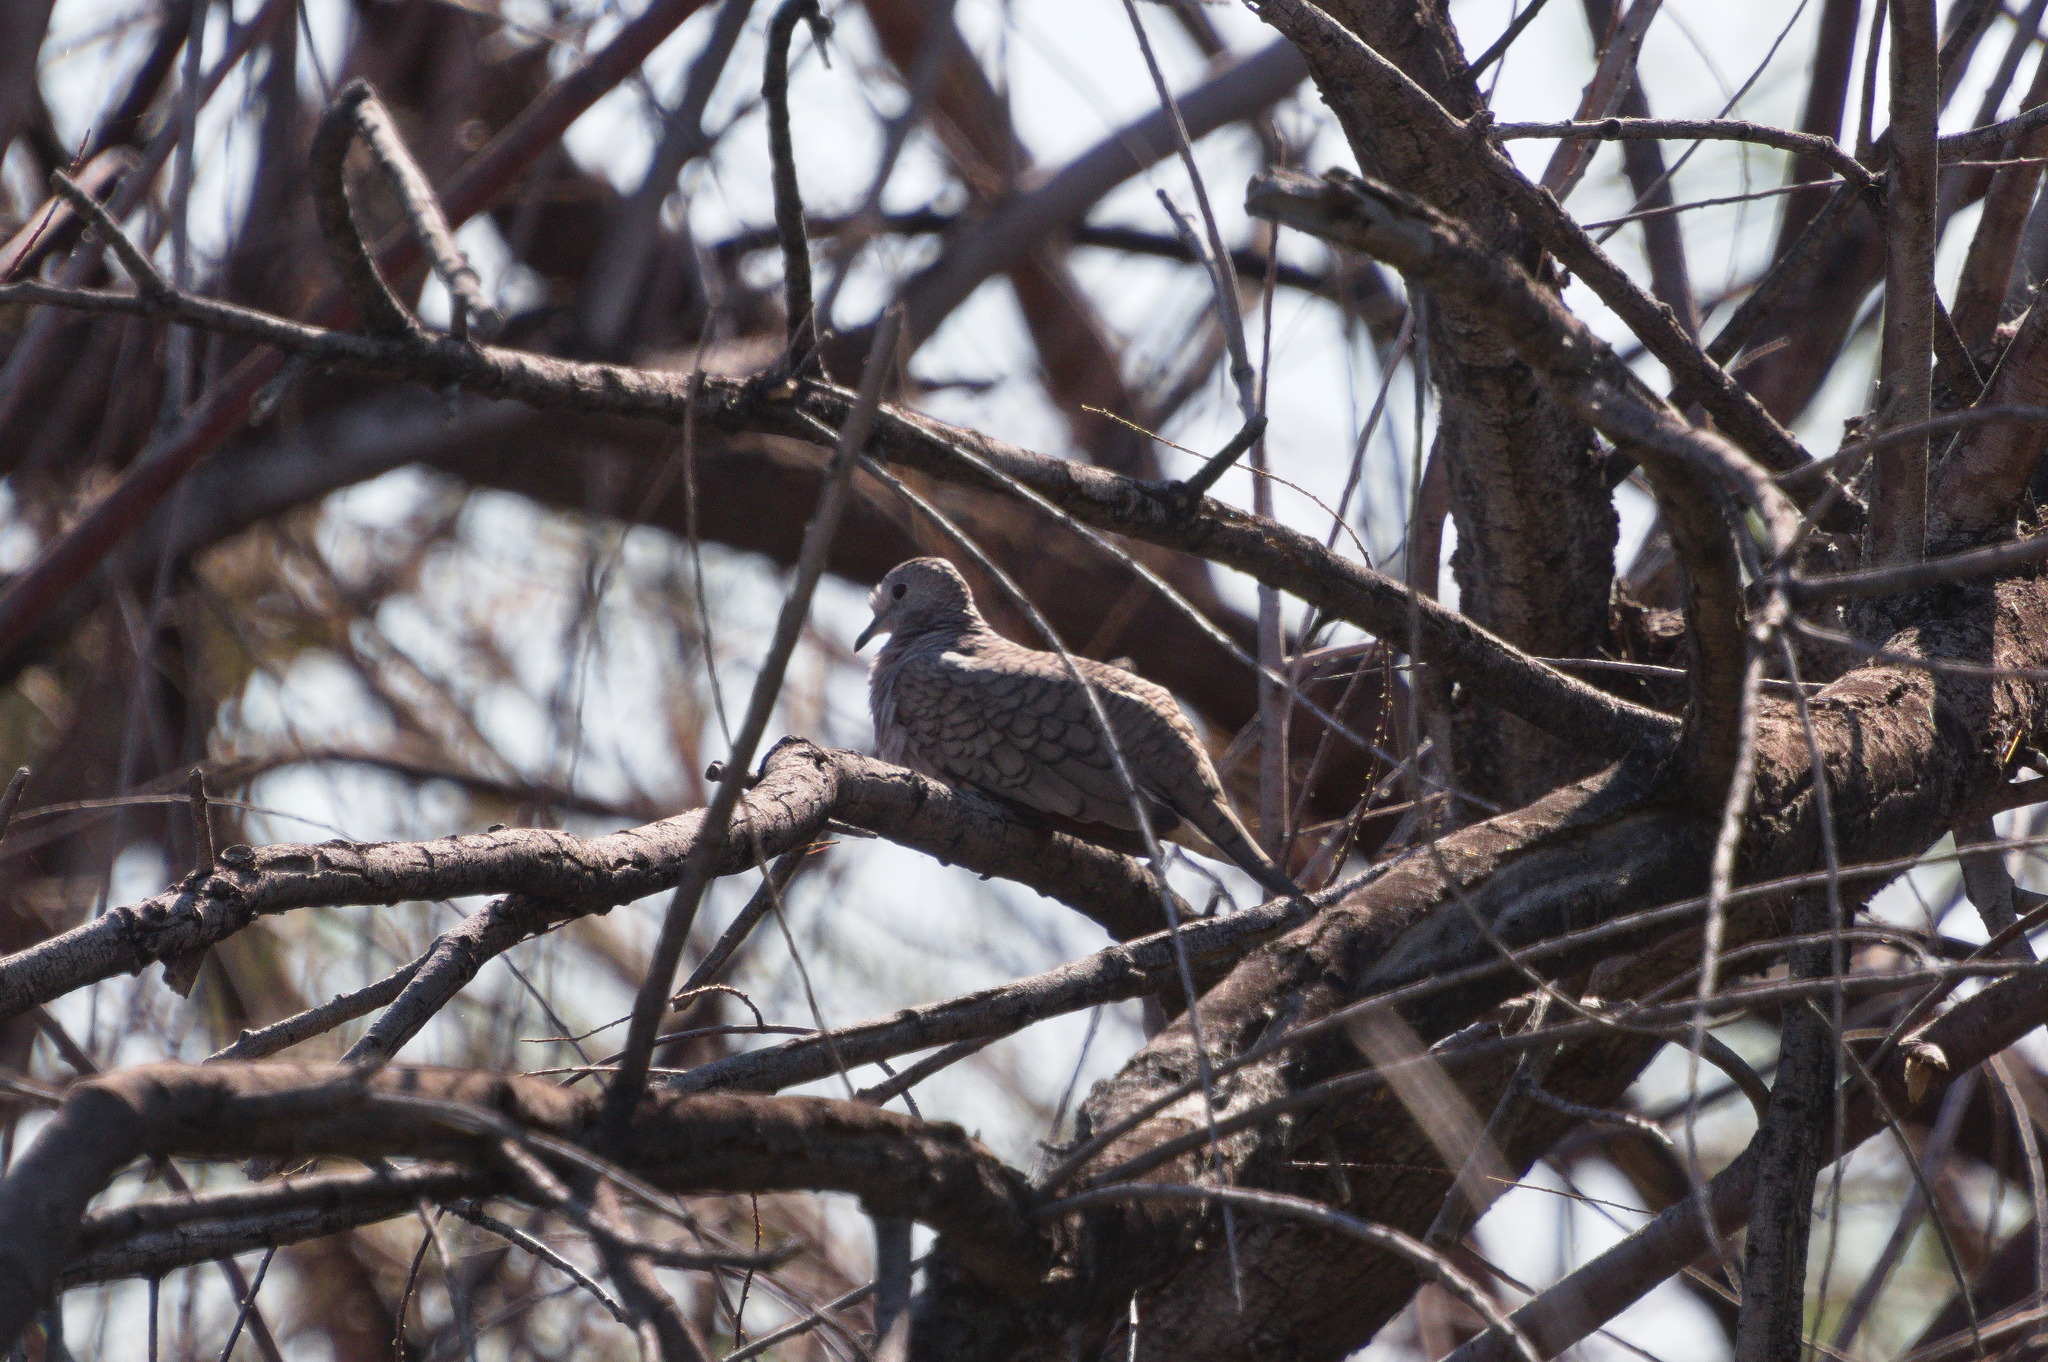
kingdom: Animalia
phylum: Chordata
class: Aves
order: Columbiformes
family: Columbidae
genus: Columbina
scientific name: Columbina inca
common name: Inca dove
